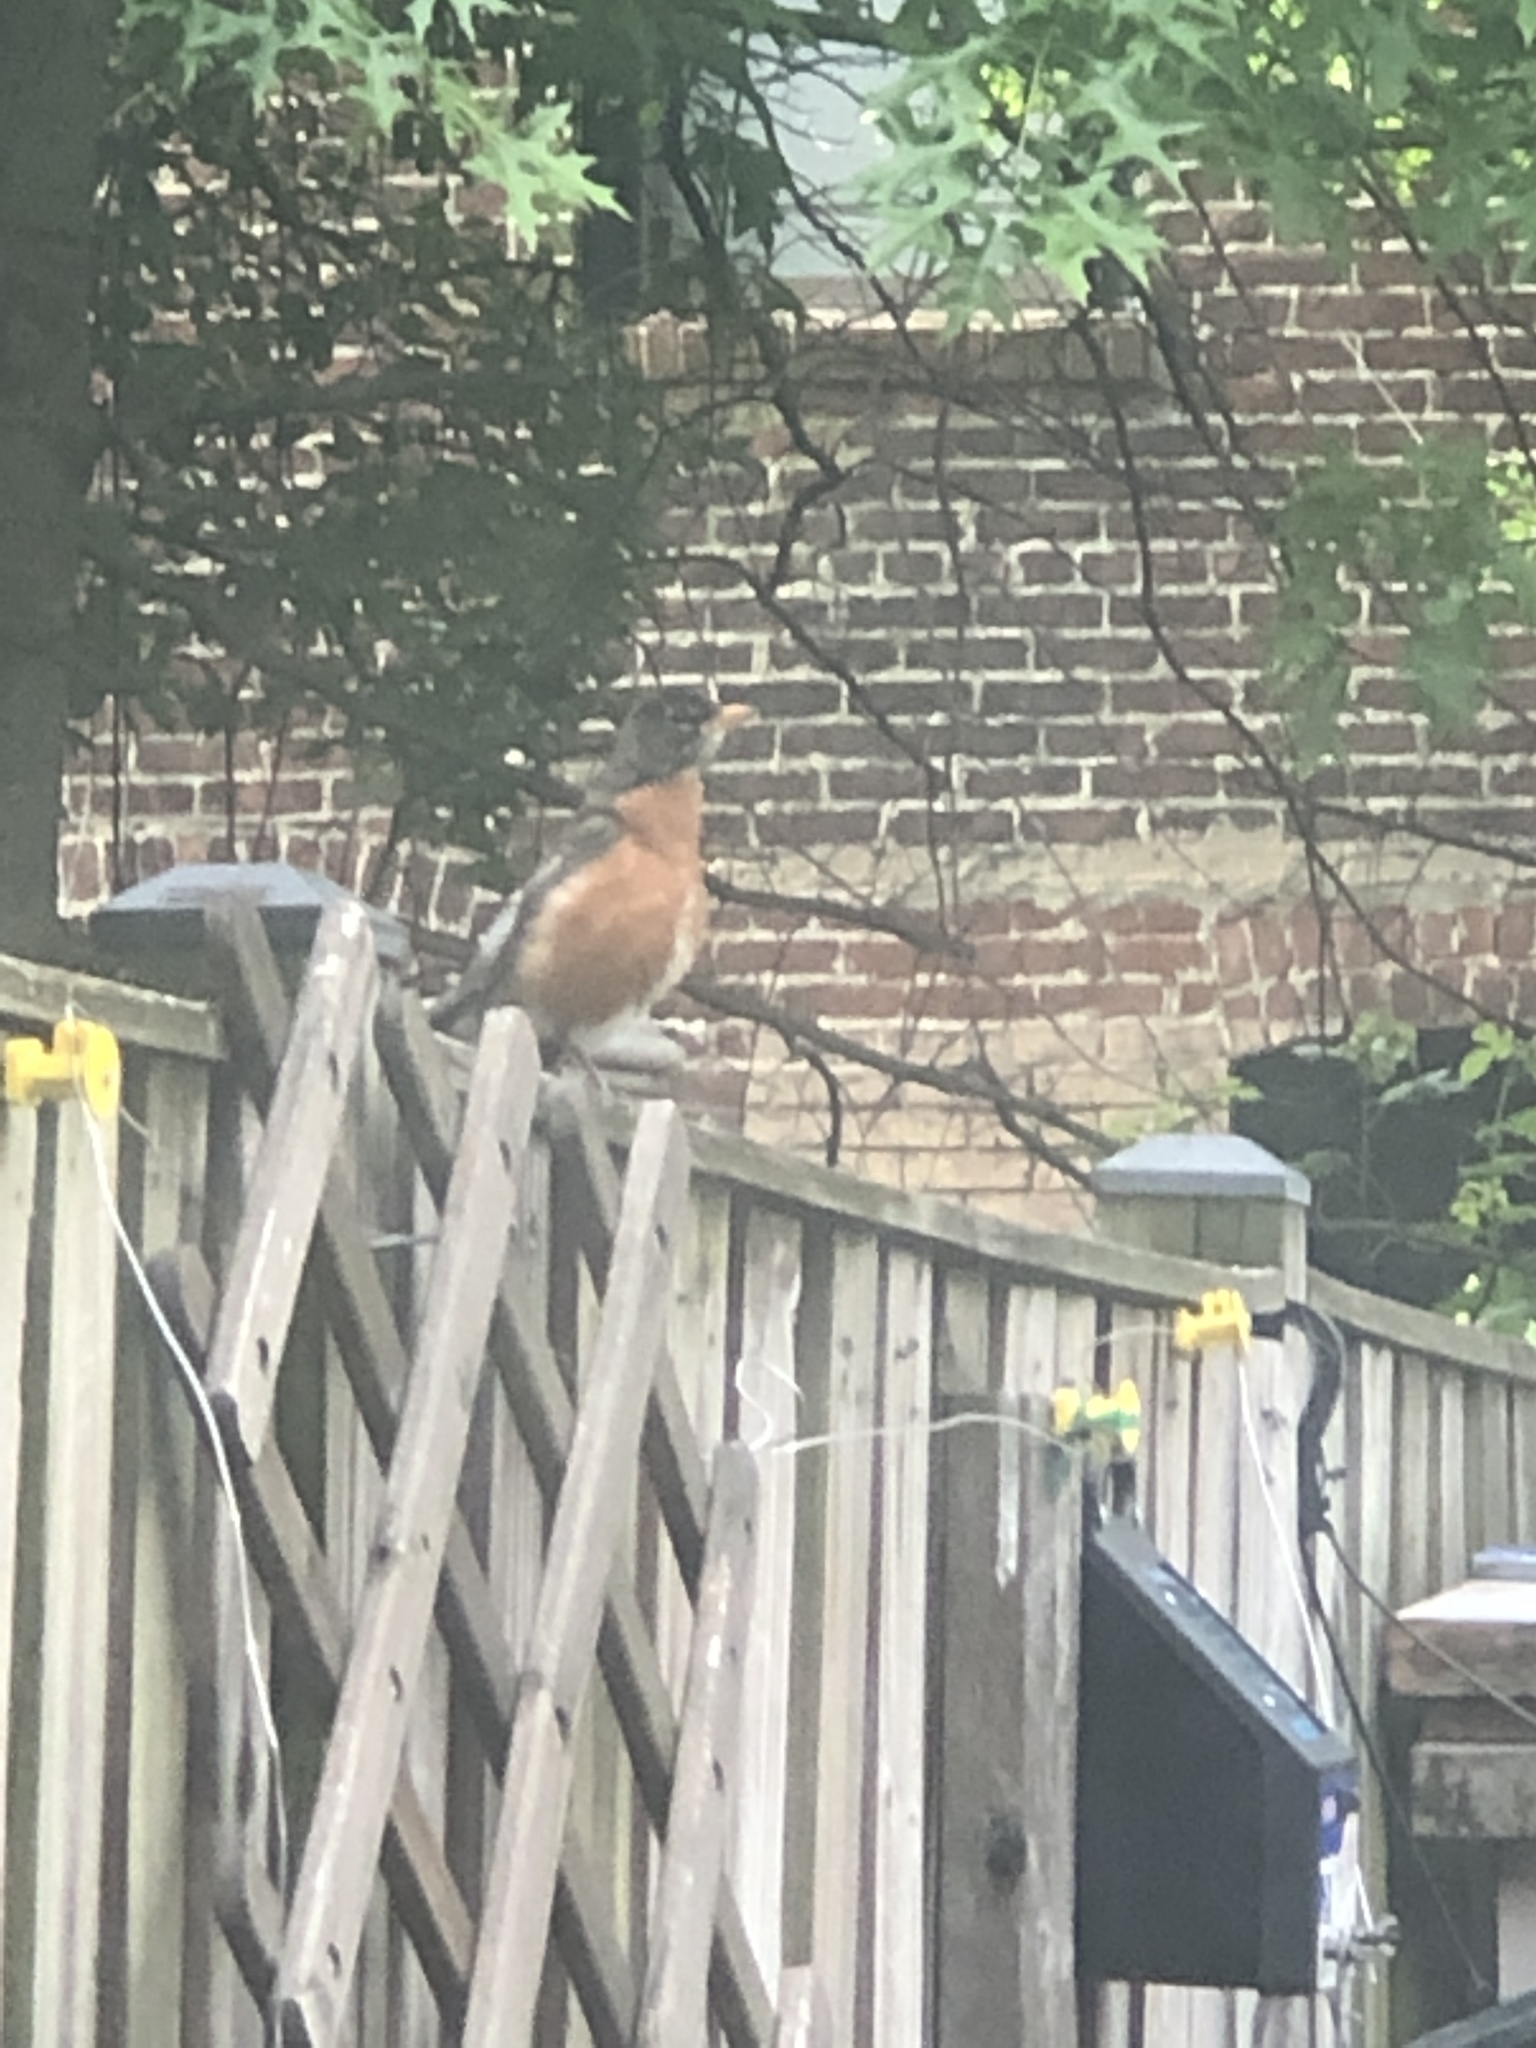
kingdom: Animalia
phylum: Chordata
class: Aves
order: Passeriformes
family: Turdidae
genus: Turdus
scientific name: Turdus migratorius
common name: American robin
